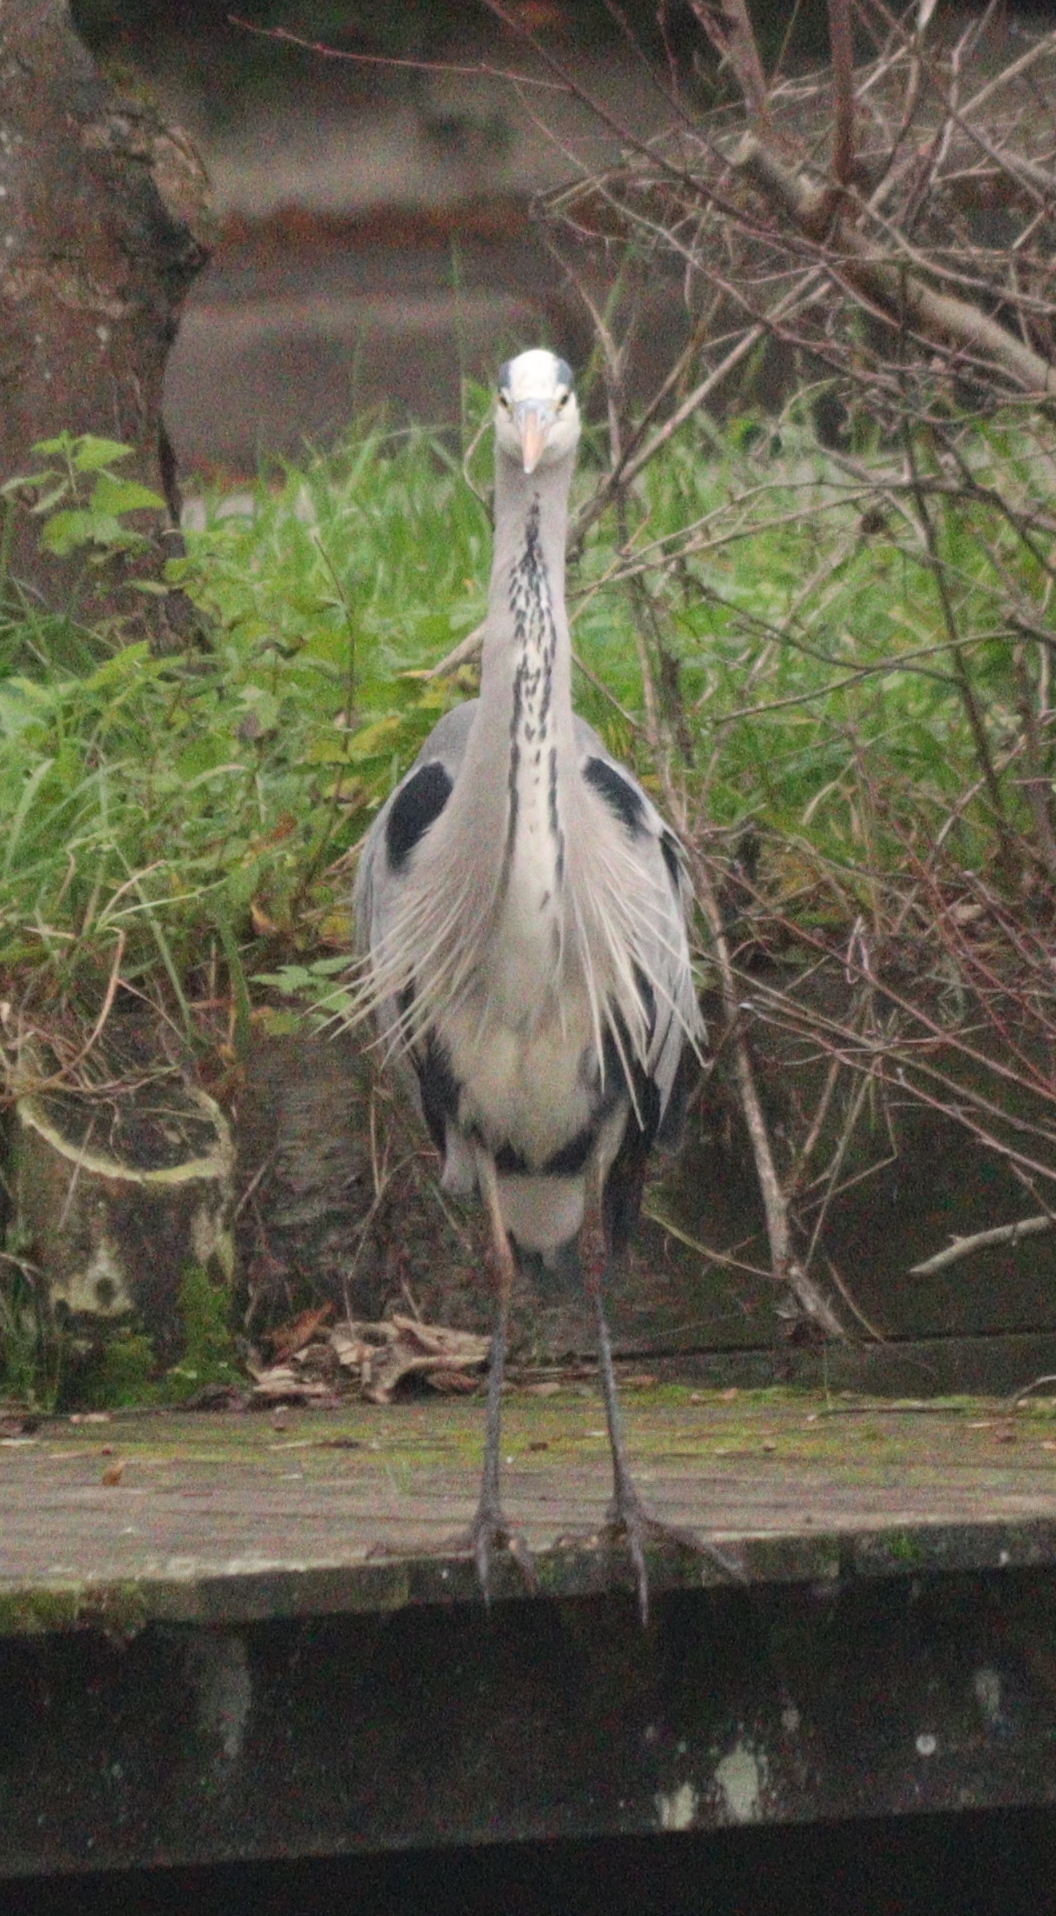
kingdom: Animalia
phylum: Chordata
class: Aves
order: Pelecaniformes
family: Ardeidae
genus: Ardea
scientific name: Ardea cinerea
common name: Grey heron
